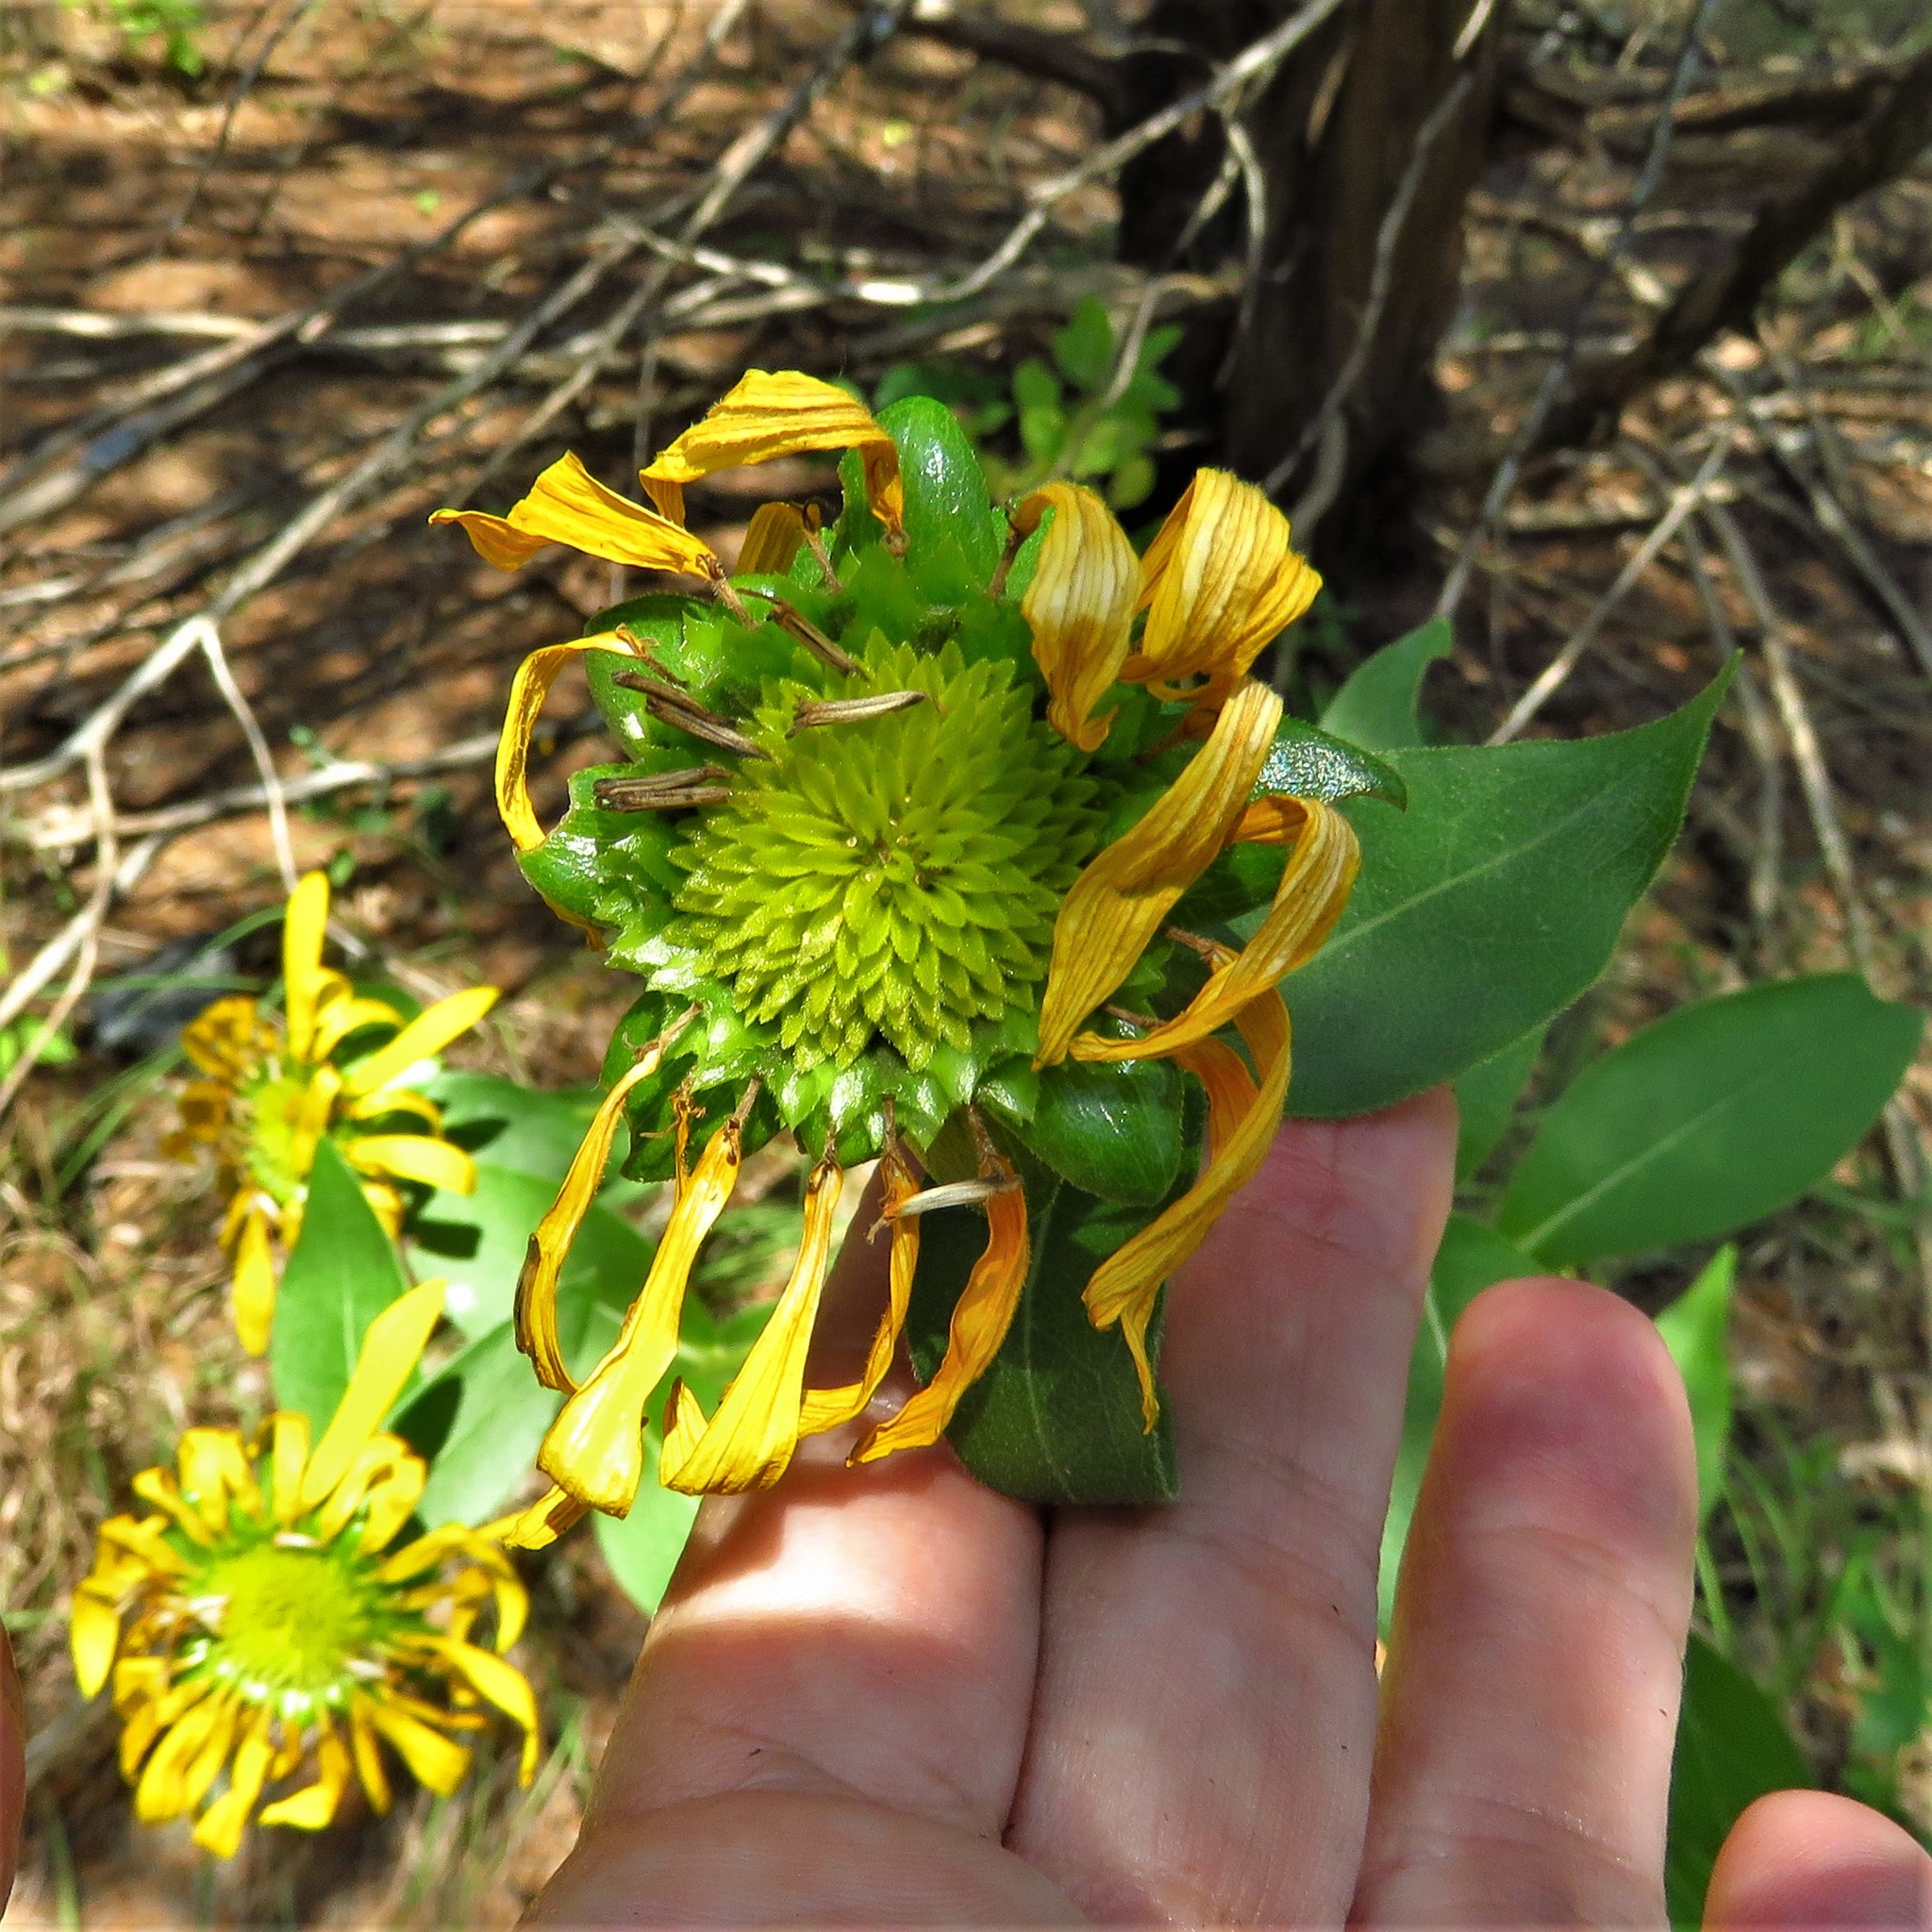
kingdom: Plantae
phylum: Tracheophyta
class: Magnoliopsida
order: Asterales
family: Asteraceae
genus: Silphium
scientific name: Silphium radula
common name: Roughleaf rosinweed
